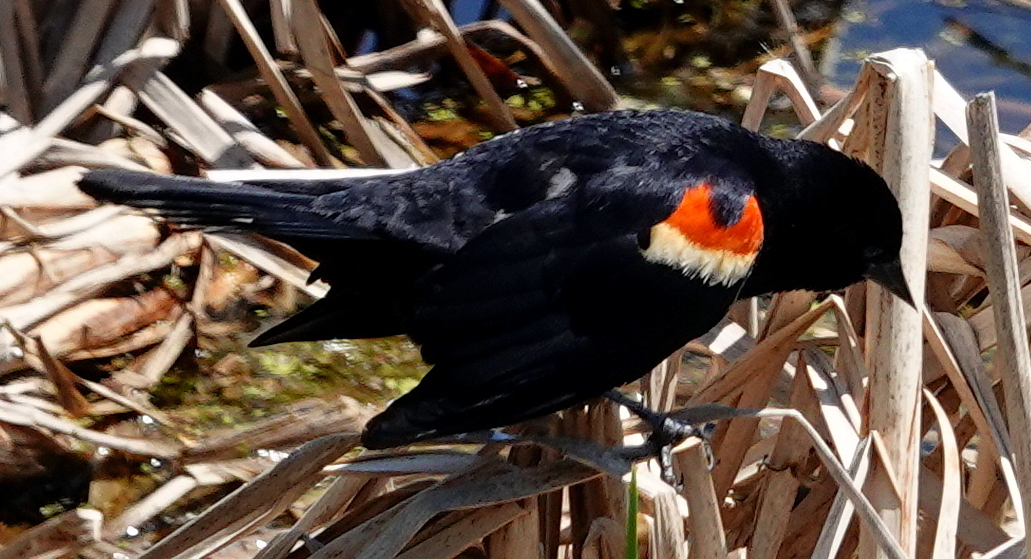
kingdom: Animalia
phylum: Chordata
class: Aves
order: Passeriformes
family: Icteridae
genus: Agelaius
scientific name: Agelaius phoeniceus
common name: Red-winged blackbird
